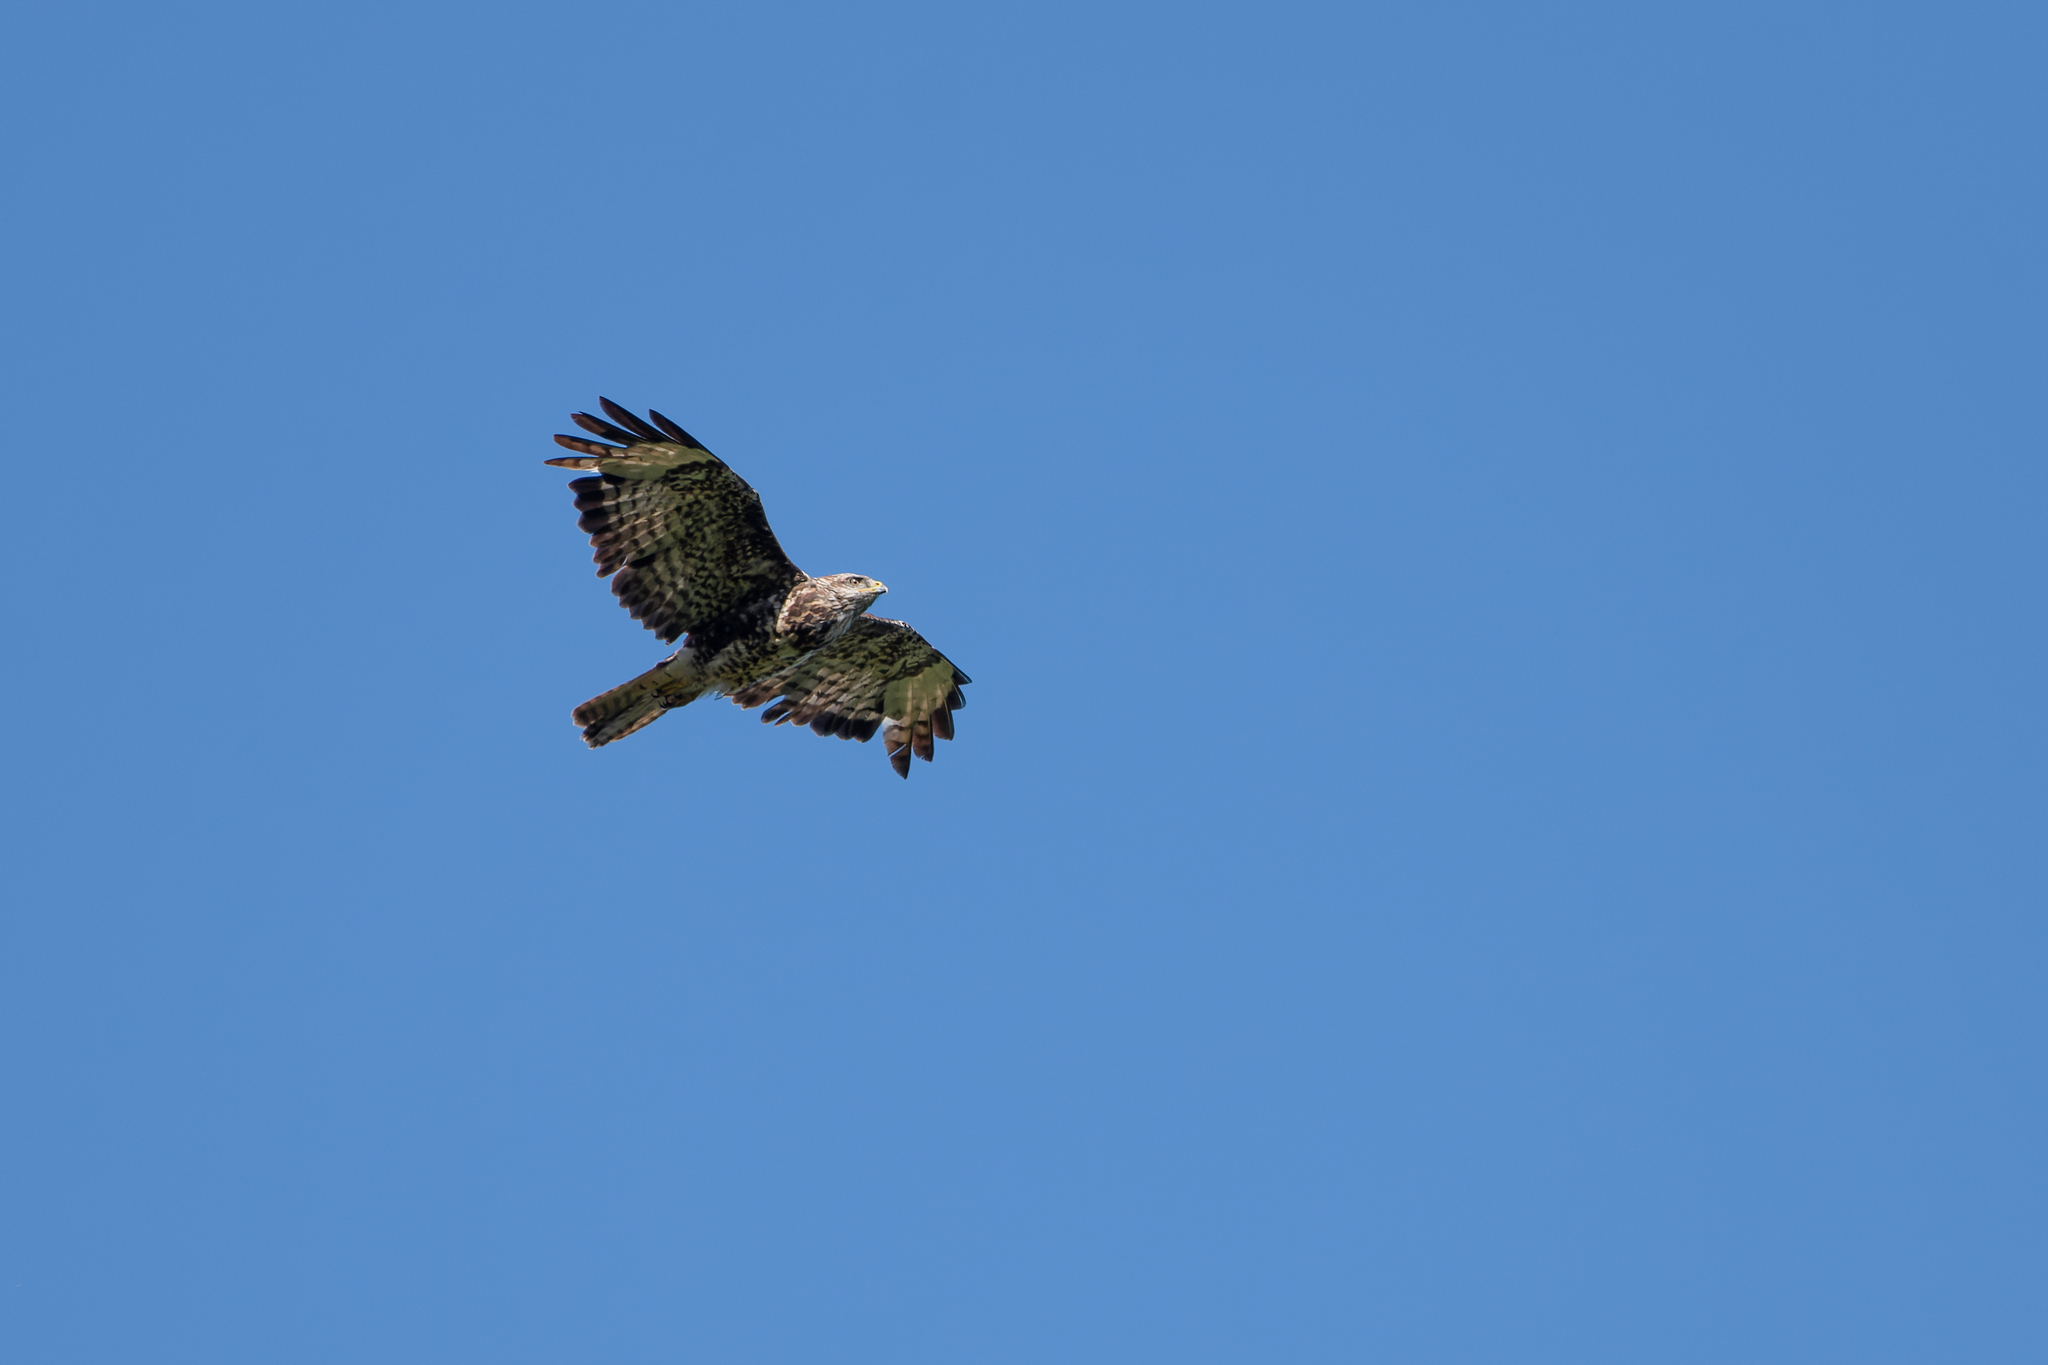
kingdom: Animalia
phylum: Chordata
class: Aves
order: Accipitriformes
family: Accipitridae
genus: Buteo
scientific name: Buteo buteo
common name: Common buzzard
